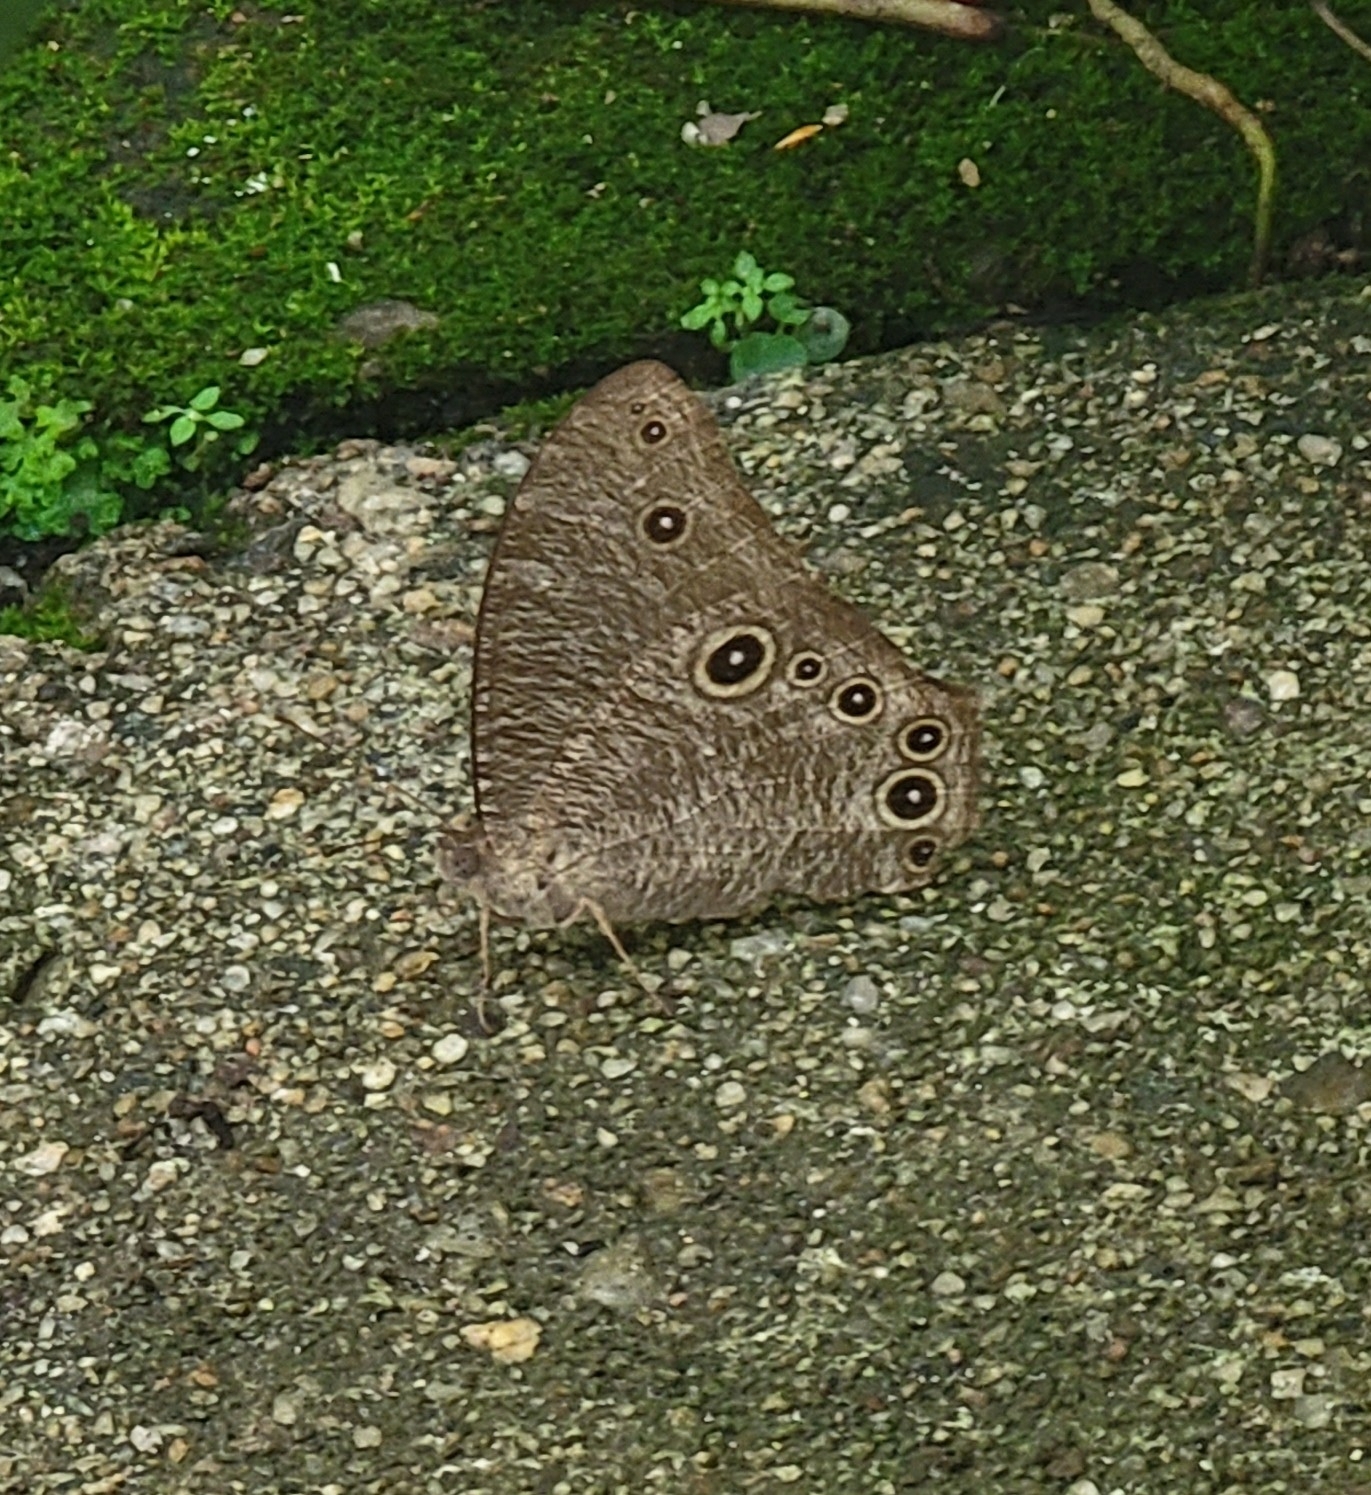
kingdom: Animalia
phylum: Arthropoda
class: Insecta
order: Lepidoptera
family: Nymphalidae
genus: Melanitis
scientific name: Melanitis leda
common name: Twilight brown
